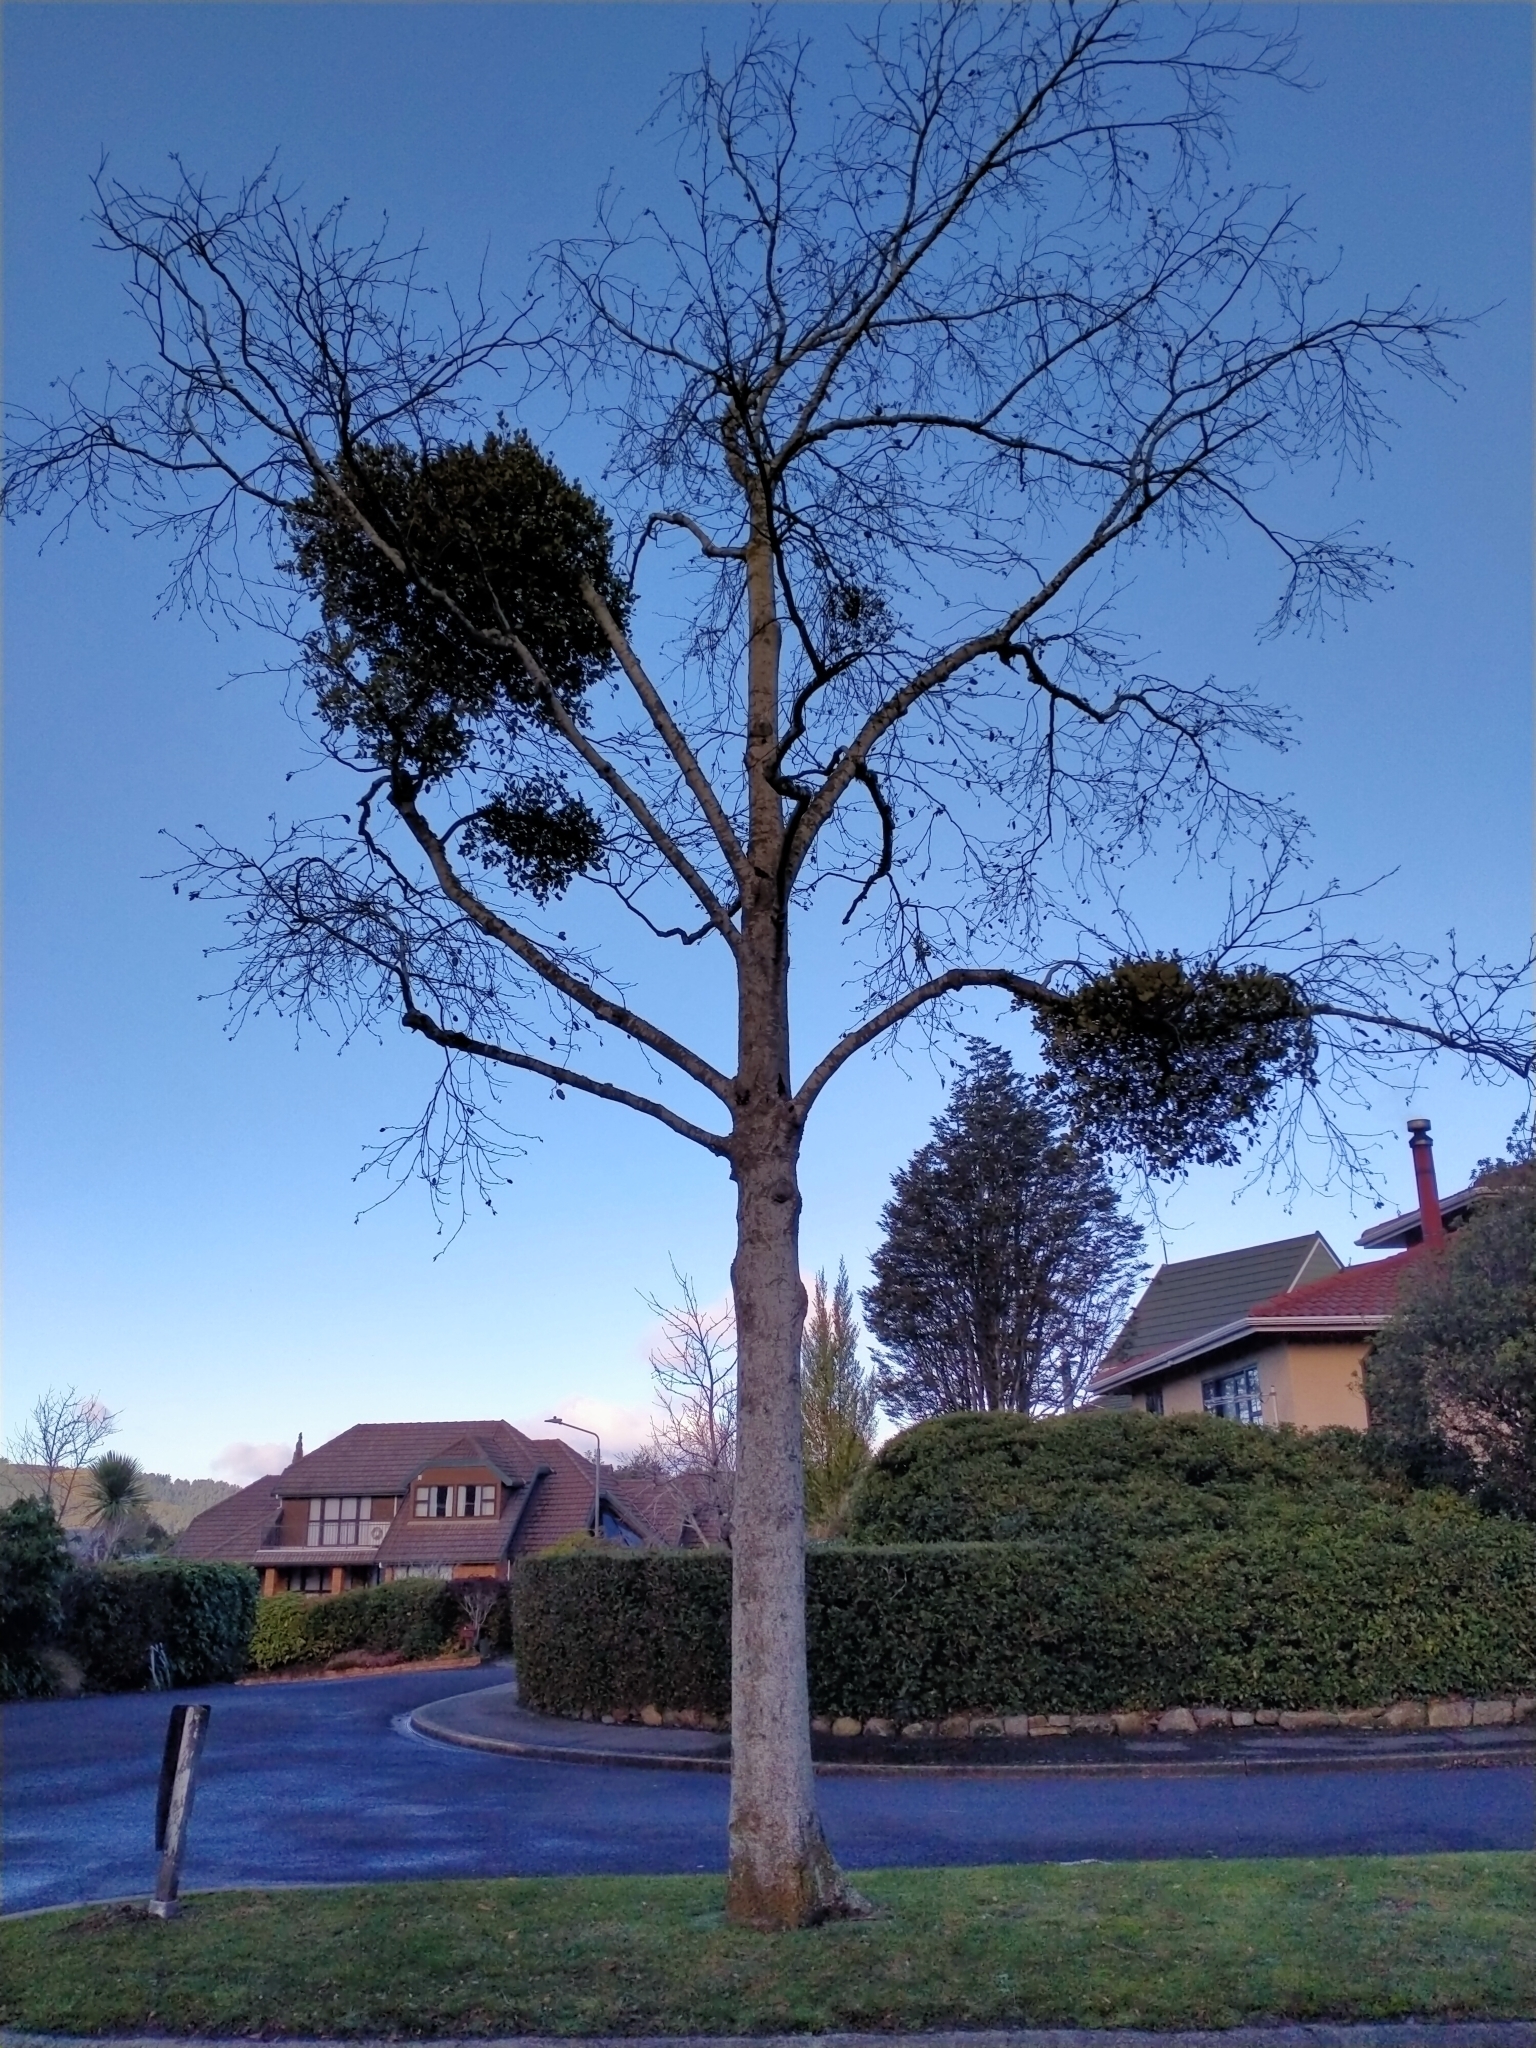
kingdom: Plantae
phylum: Tracheophyta
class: Magnoliopsida
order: Santalales
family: Loranthaceae
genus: Ileostylus
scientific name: Ileostylus micranthus
